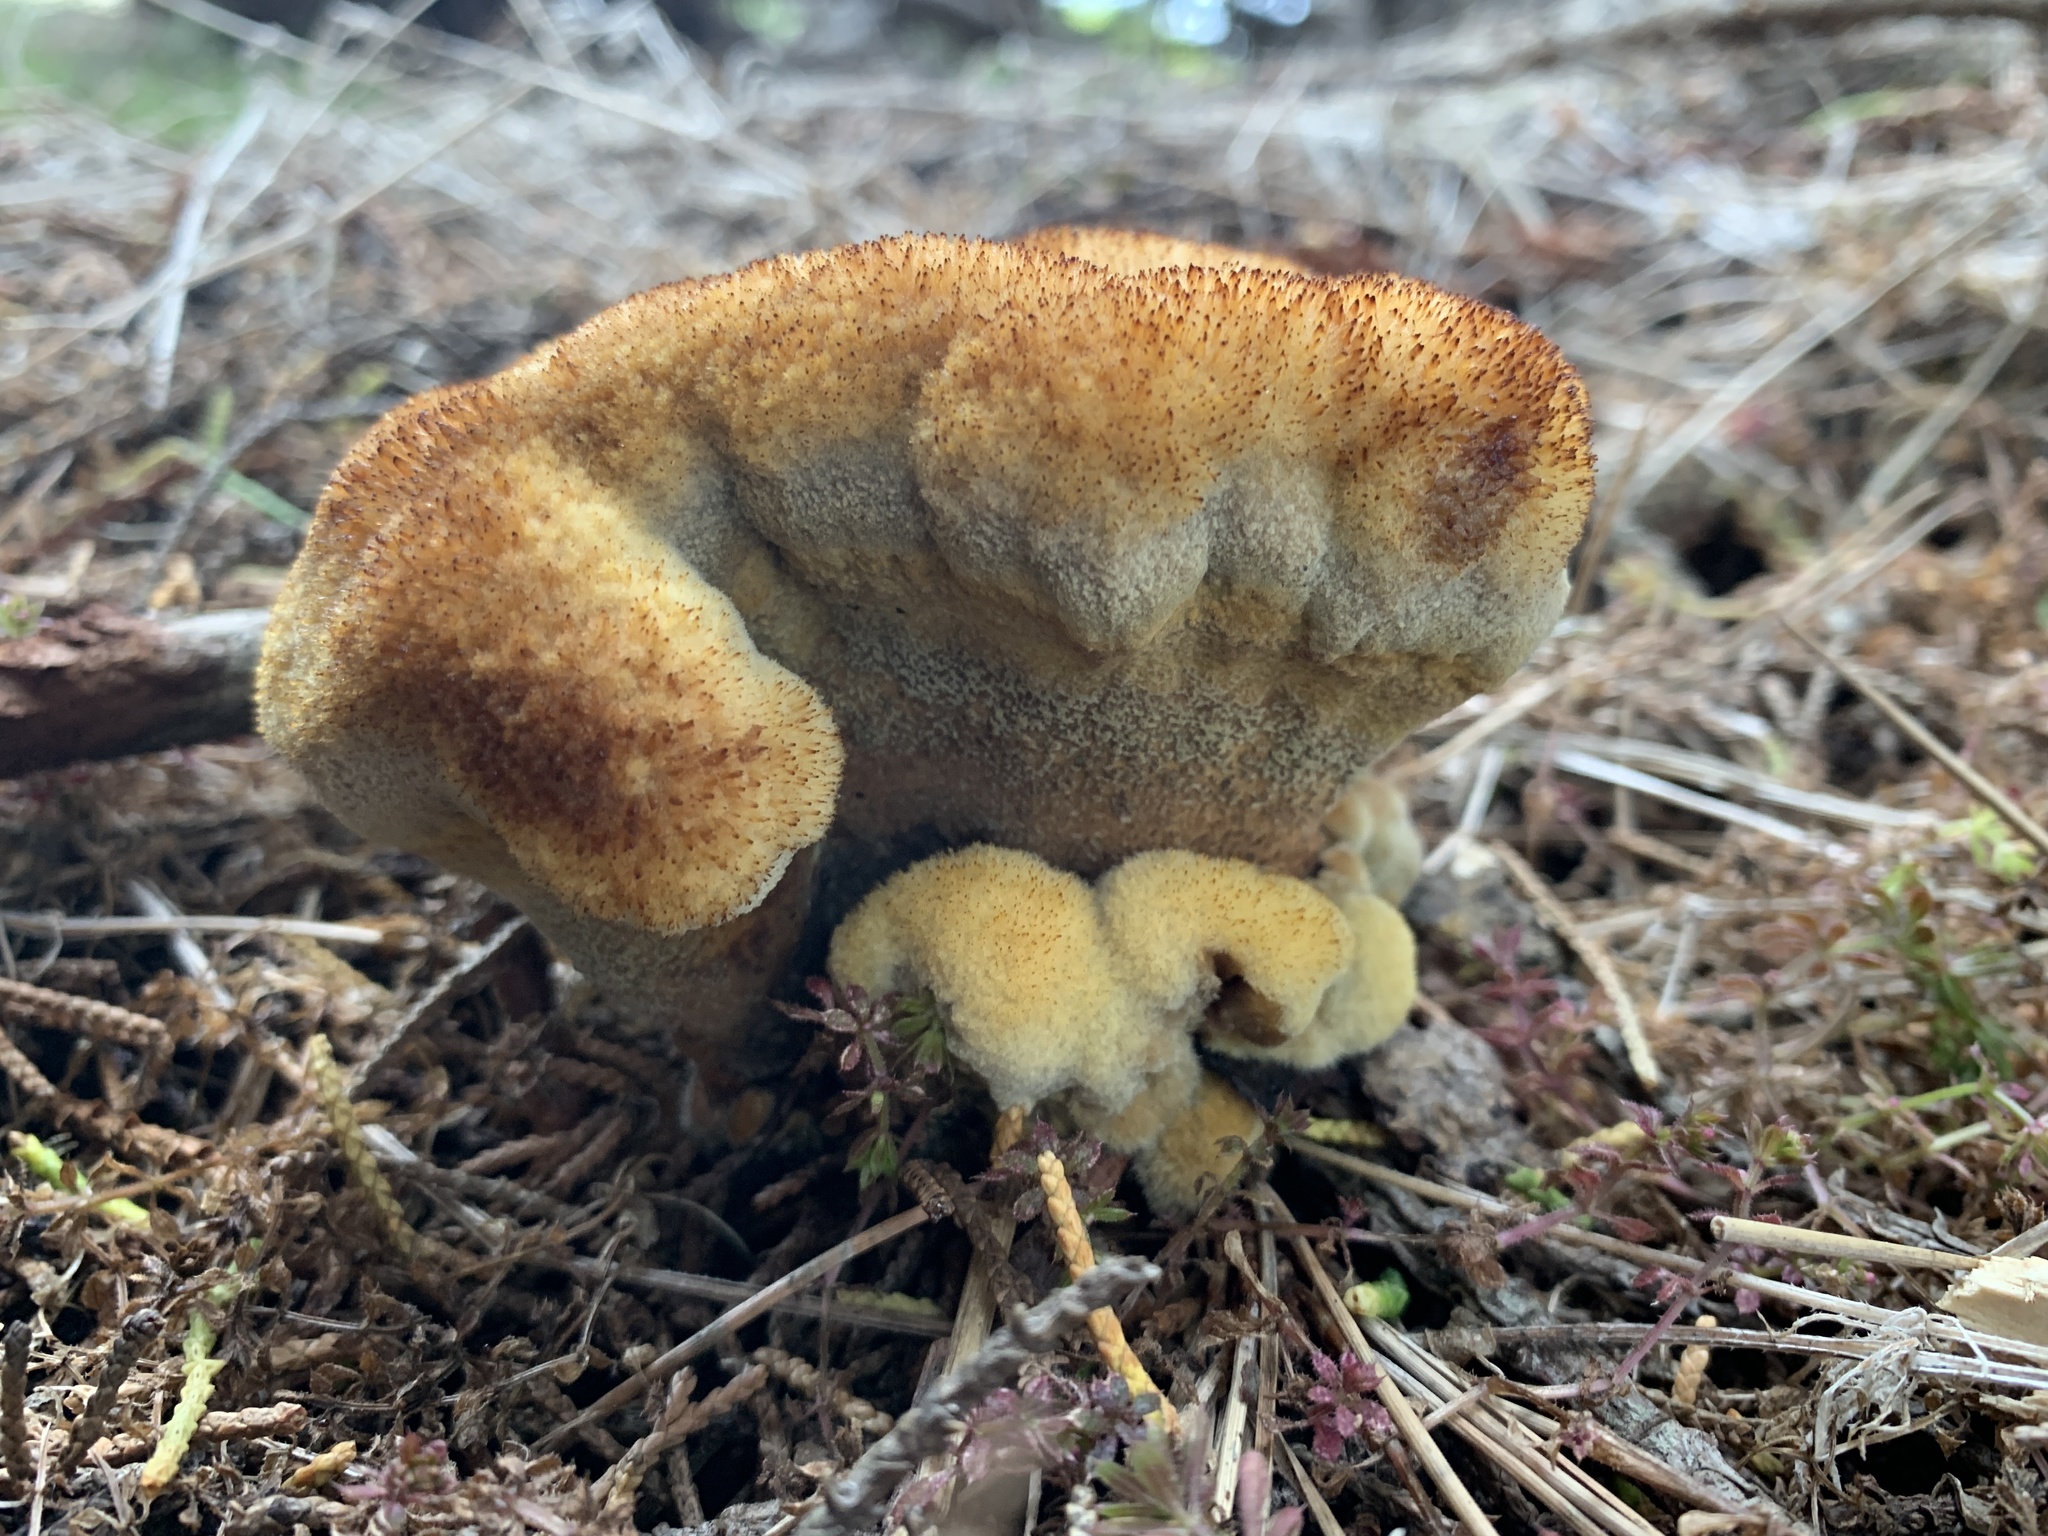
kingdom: Fungi
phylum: Basidiomycota
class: Agaricomycetes
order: Polyporales
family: Laetiporaceae
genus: Phaeolus
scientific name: Phaeolus schweinitzii
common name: Dyer's mazegill
